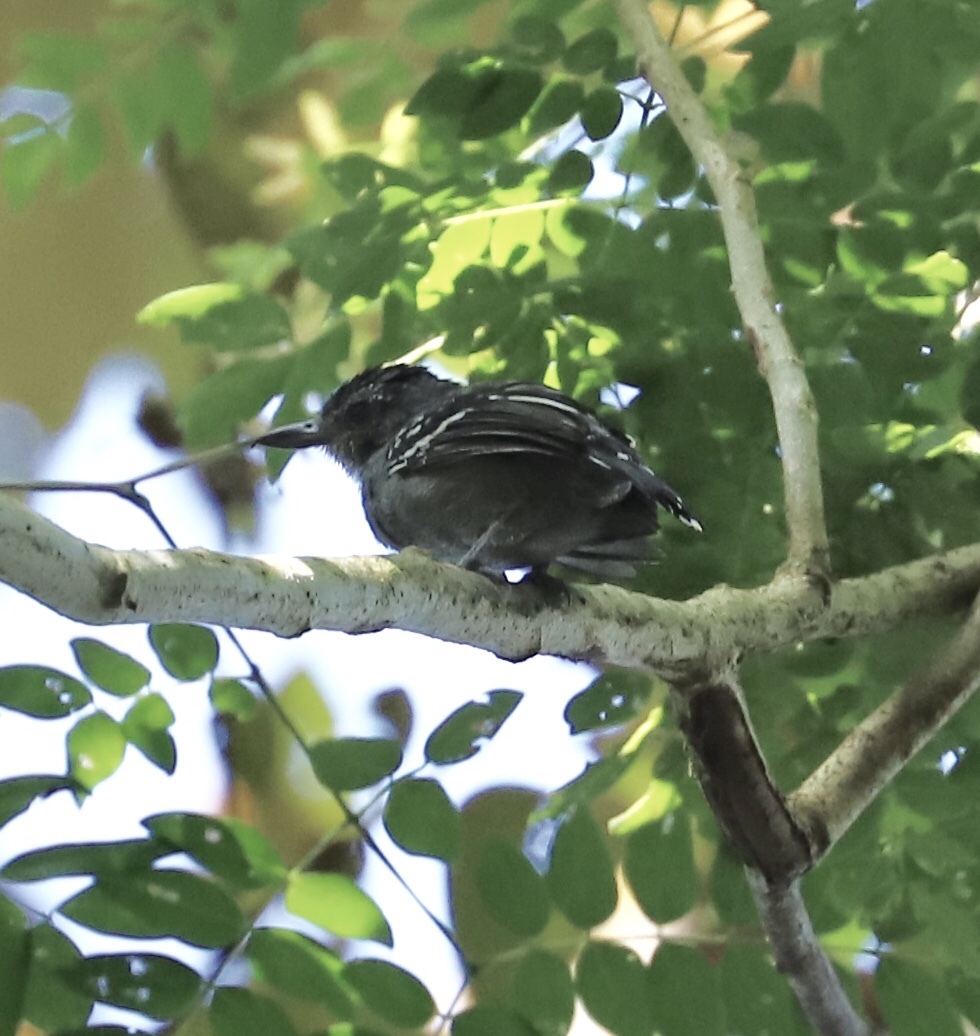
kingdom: Animalia
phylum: Chordata
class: Aves
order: Passeriformes
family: Thamnophilidae
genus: Thamnophilus
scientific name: Thamnophilus atrinucha
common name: Black-crowned antshrike
